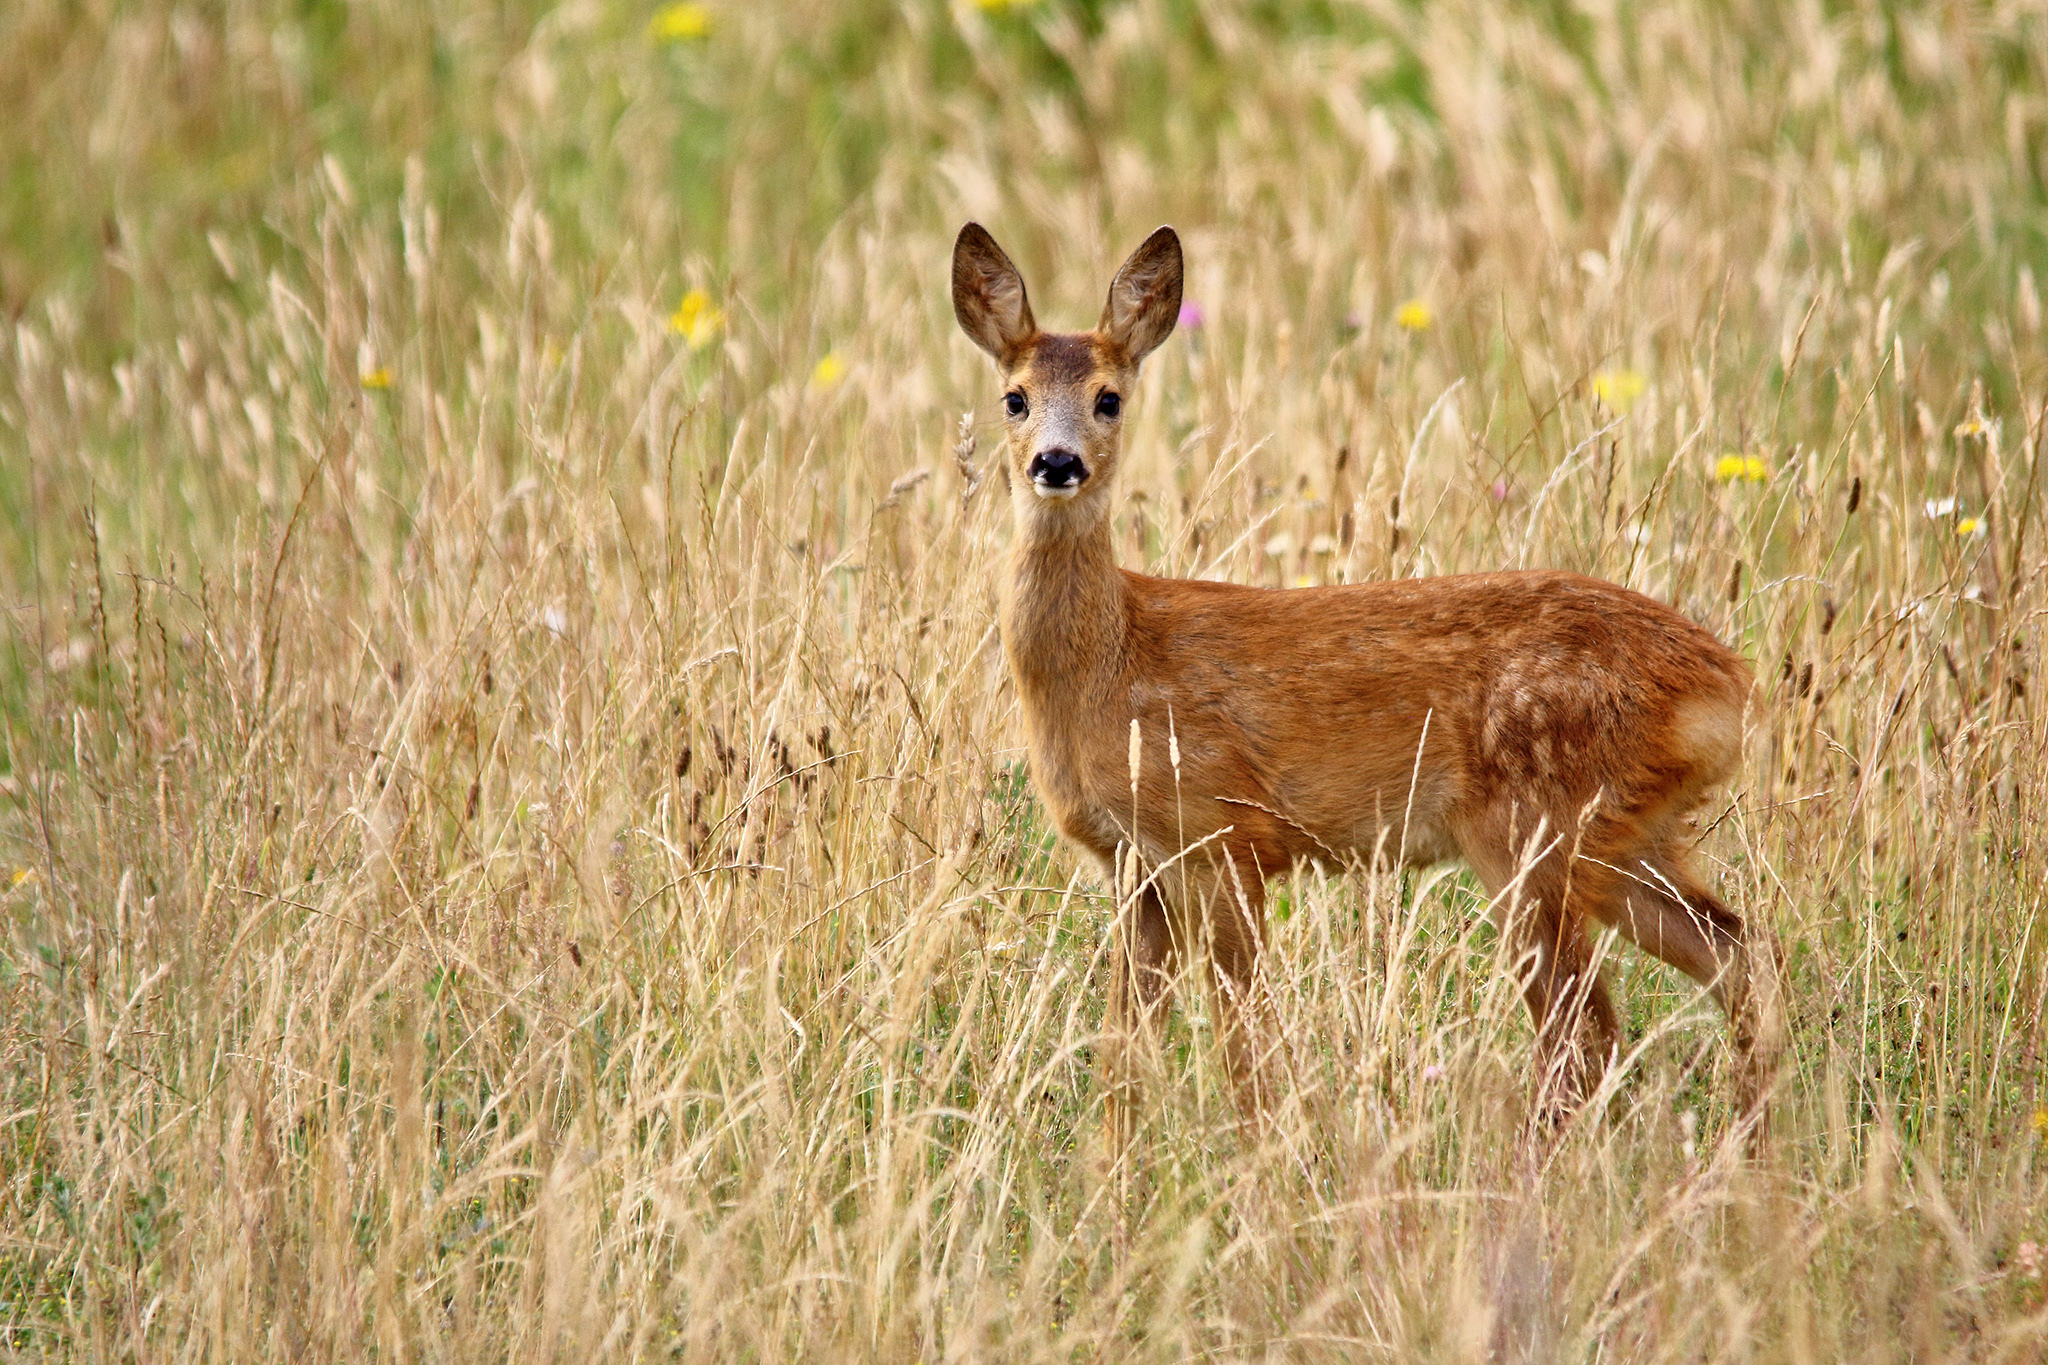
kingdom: Animalia
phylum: Chordata
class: Mammalia
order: Artiodactyla
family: Cervidae
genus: Capreolus
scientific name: Capreolus capreolus
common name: Western roe deer
